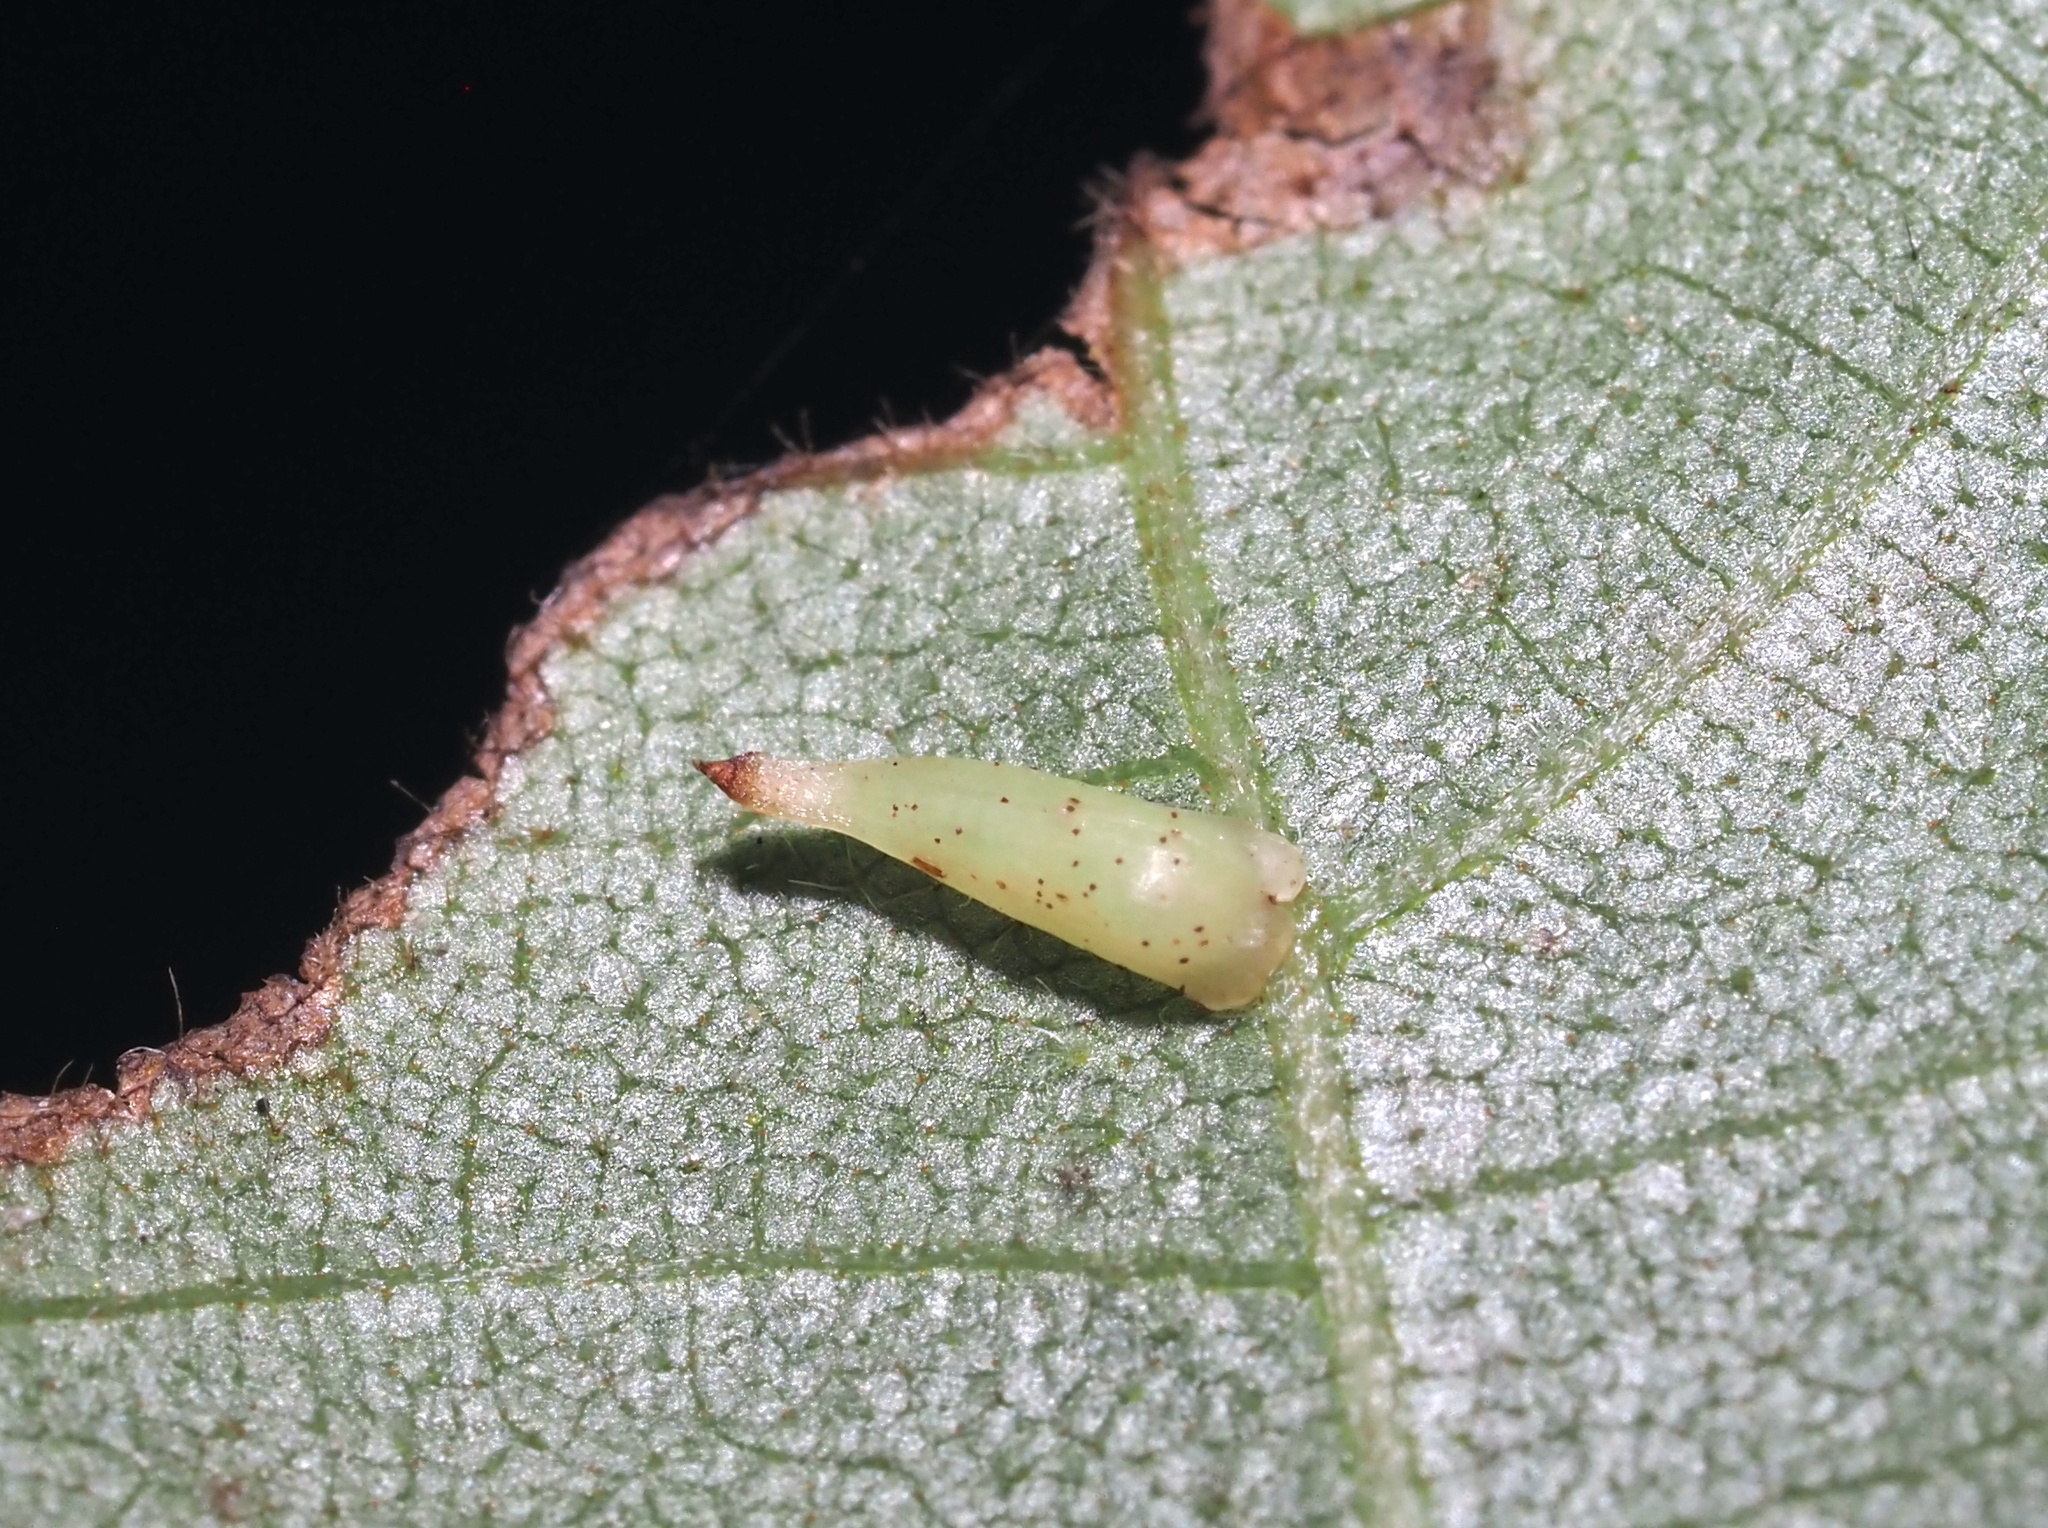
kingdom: Animalia
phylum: Arthropoda
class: Insecta
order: Diptera
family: Cecidomyiidae
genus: Caryomyia
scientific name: Caryomyia
